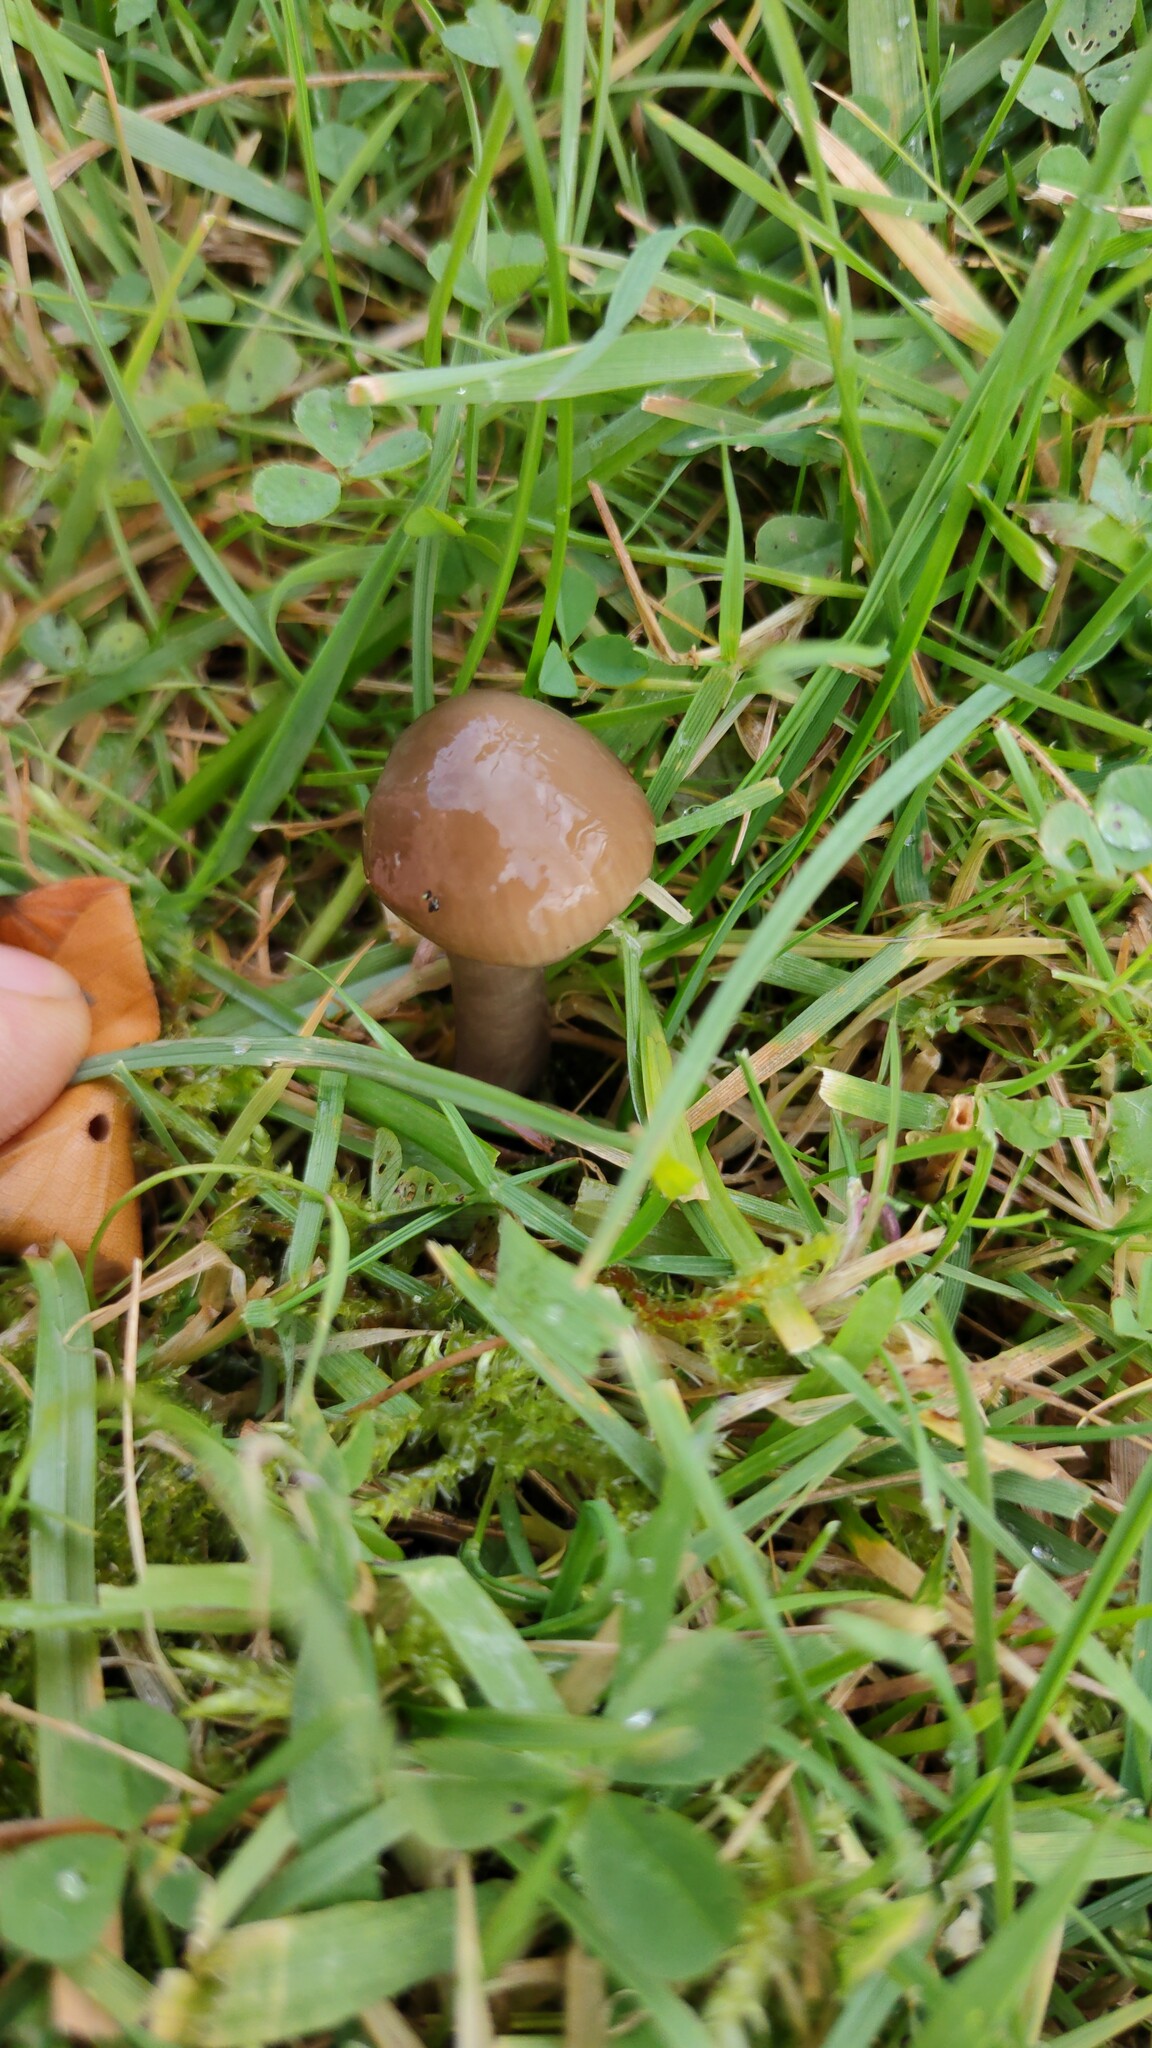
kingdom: Fungi
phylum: Basidiomycota
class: Agaricomycetes
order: Agaricales
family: Hygrophoraceae
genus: Gliophorus
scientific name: Gliophorus irrigatus
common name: Slimy waxcap
